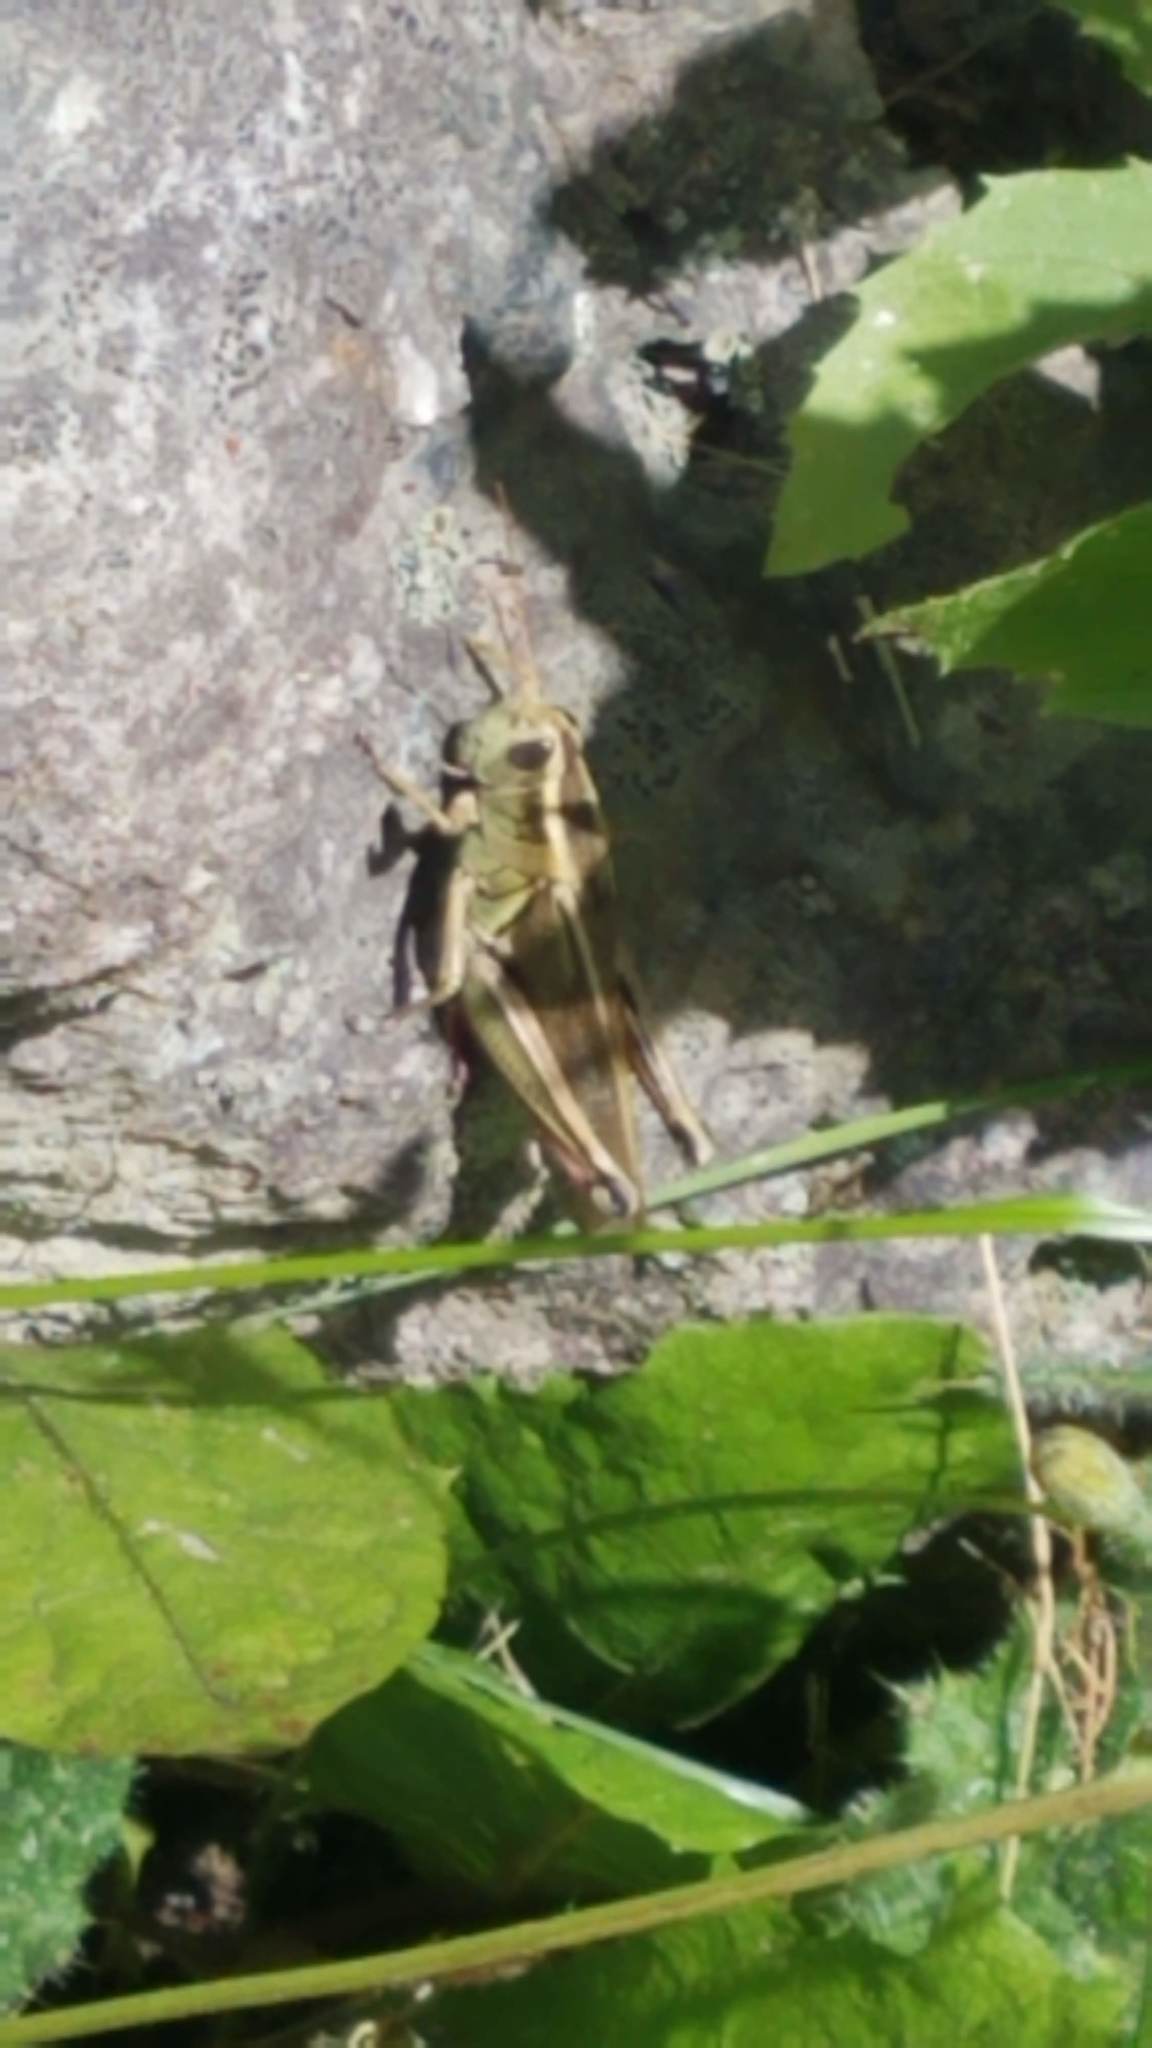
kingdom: Animalia
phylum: Arthropoda
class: Insecta
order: Orthoptera
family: Acrididae
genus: Melanoplus
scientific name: Melanoplus bivittatus
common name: Two-striped grasshopper
